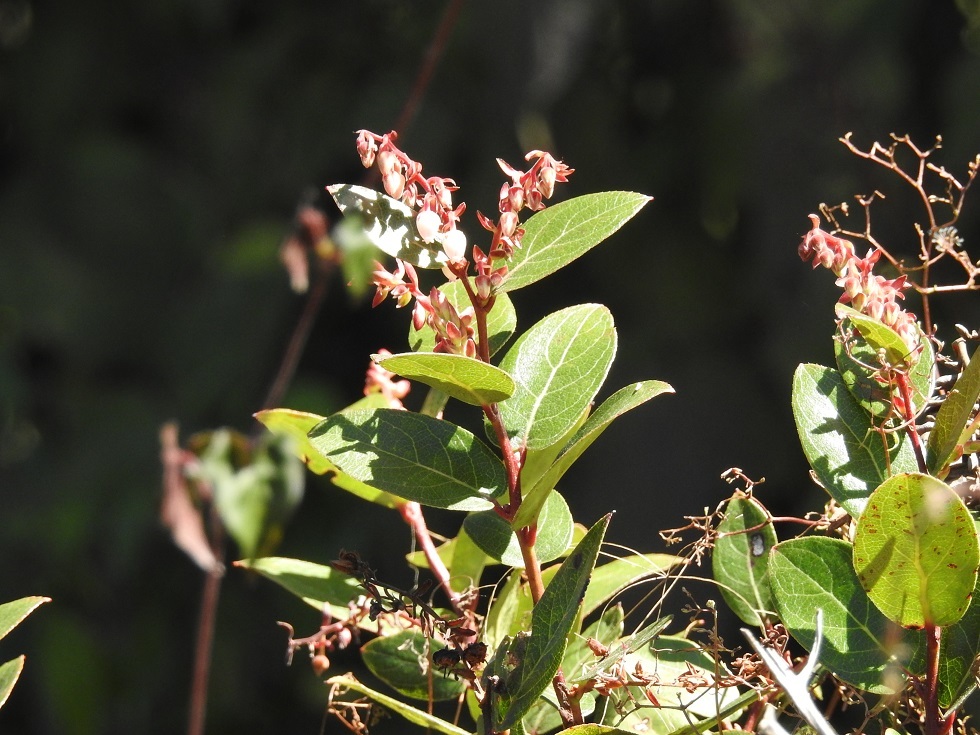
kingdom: Plantae
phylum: Tracheophyta
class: Magnoliopsida
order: Ericales
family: Ericaceae
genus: Gaultheria
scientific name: Gaultheria erecta
